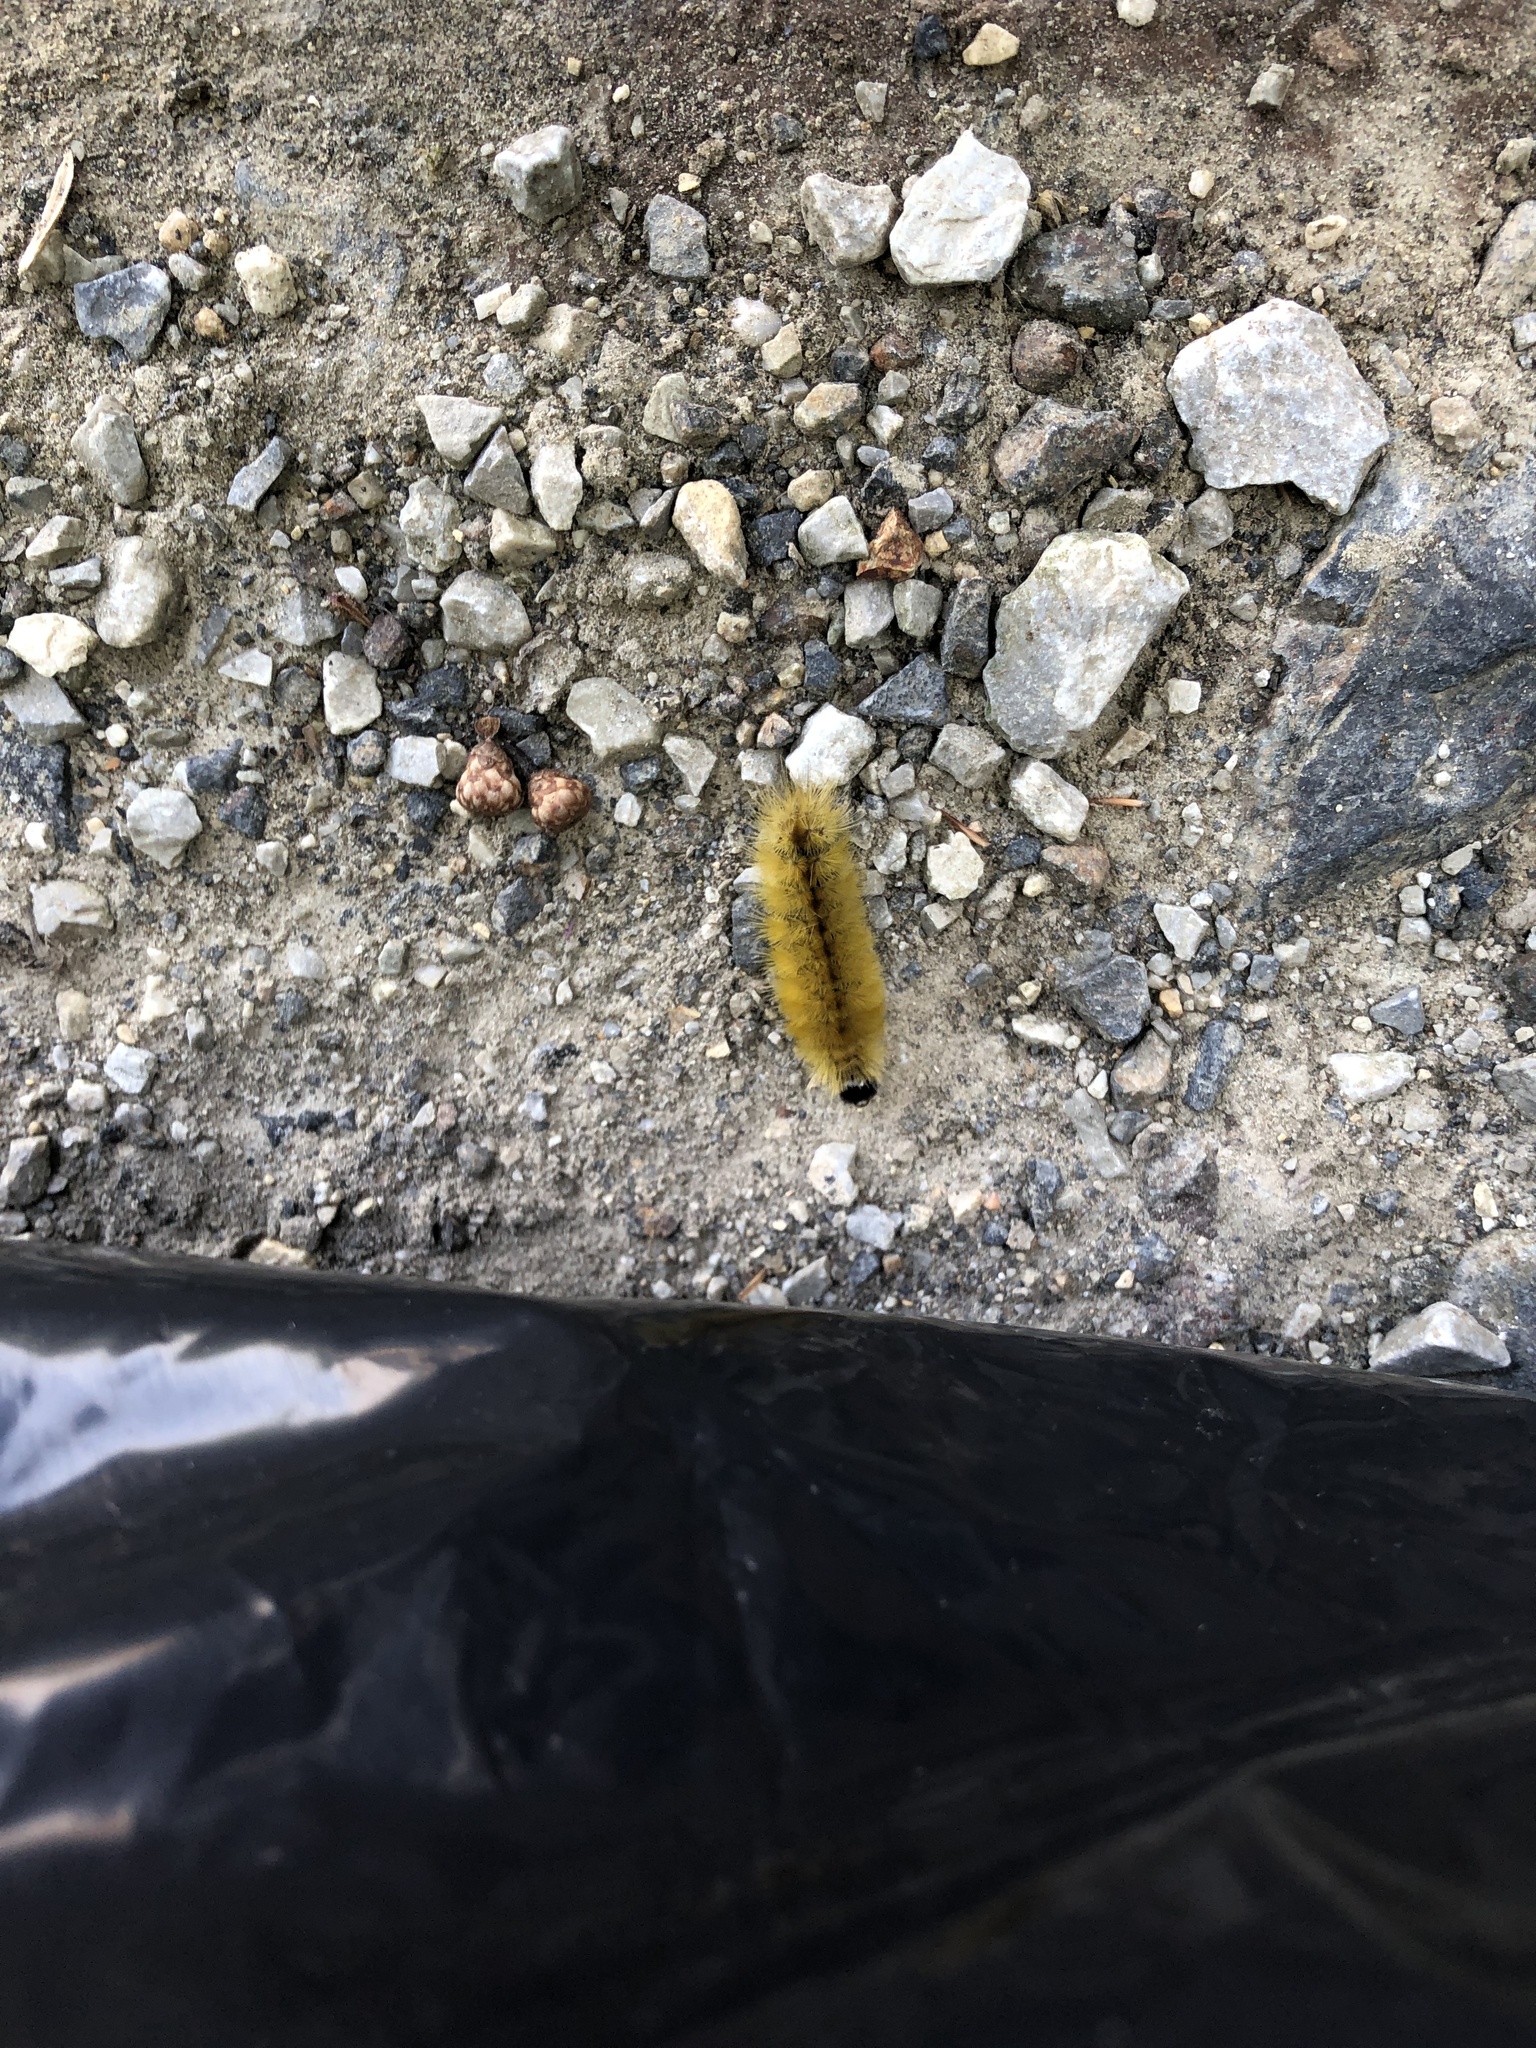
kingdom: Animalia
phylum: Arthropoda
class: Insecta
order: Lepidoptera
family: Erebidae
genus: Halysidota
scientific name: Halysidota tessellaris
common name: Banded tussock moth
